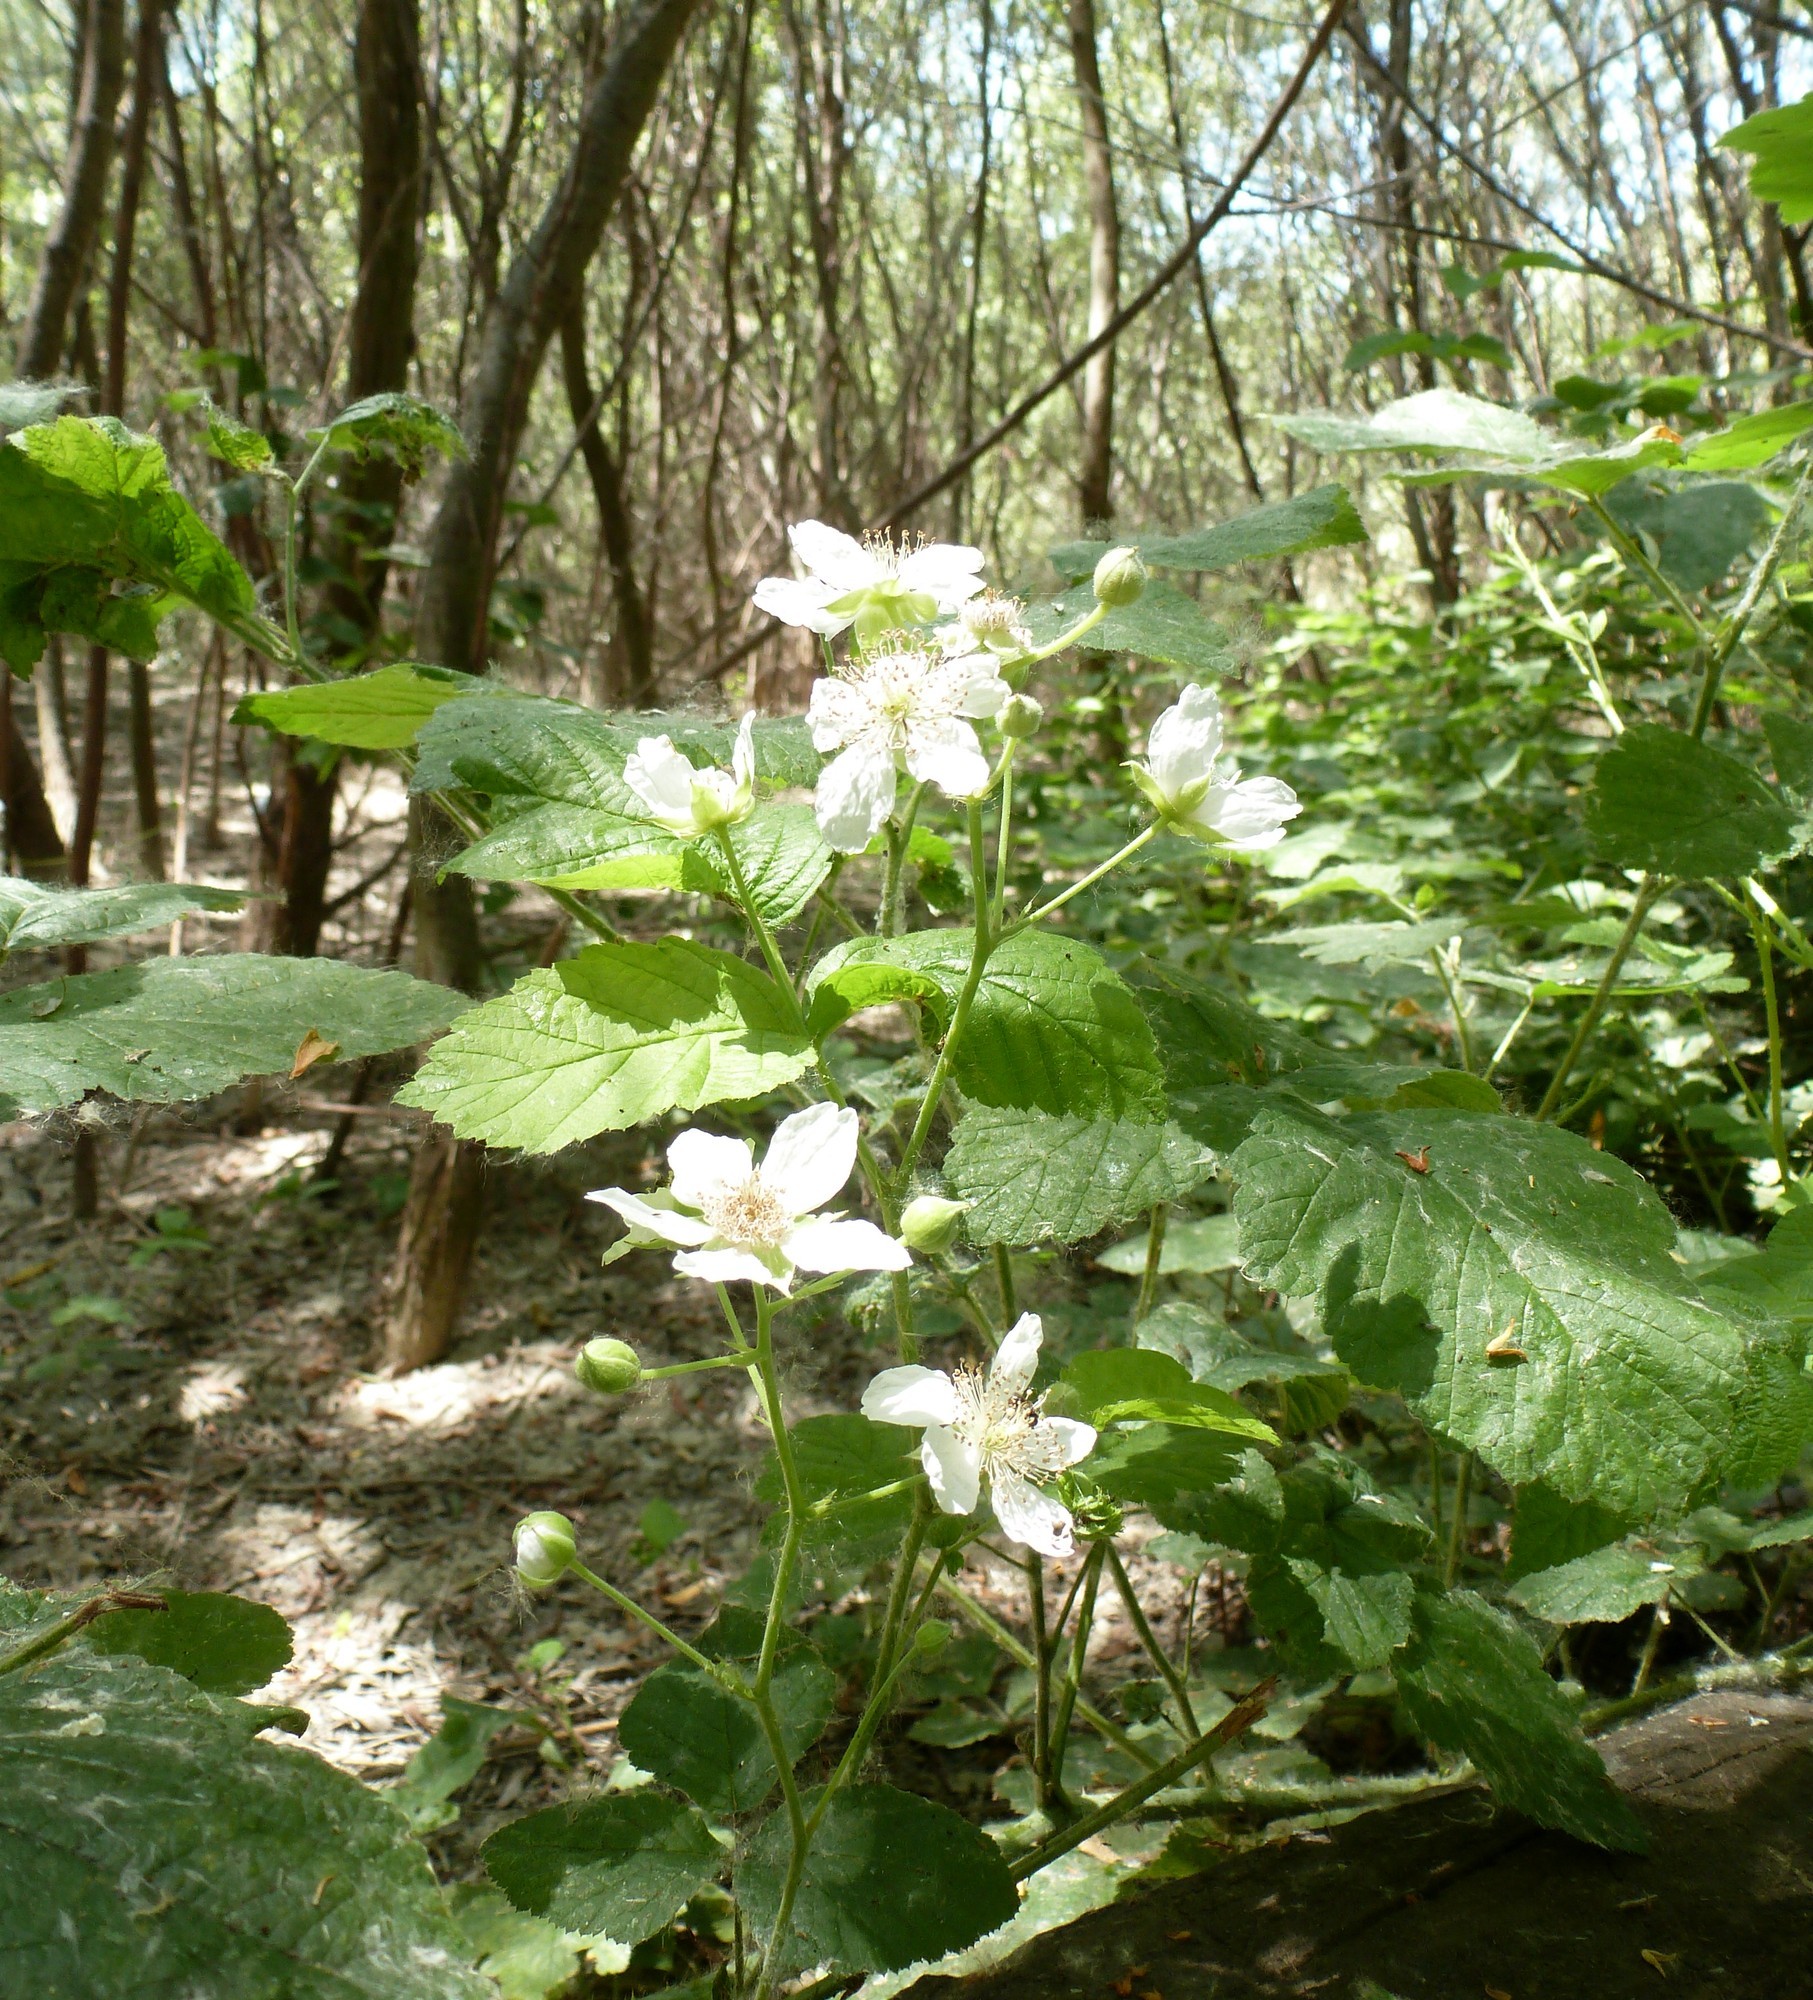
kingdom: Plantae
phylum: Tracheophyta
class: Magnoliopsida
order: Rosales
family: Rosaceae
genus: Rubus
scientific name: Rubus caesius
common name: Dewberry
